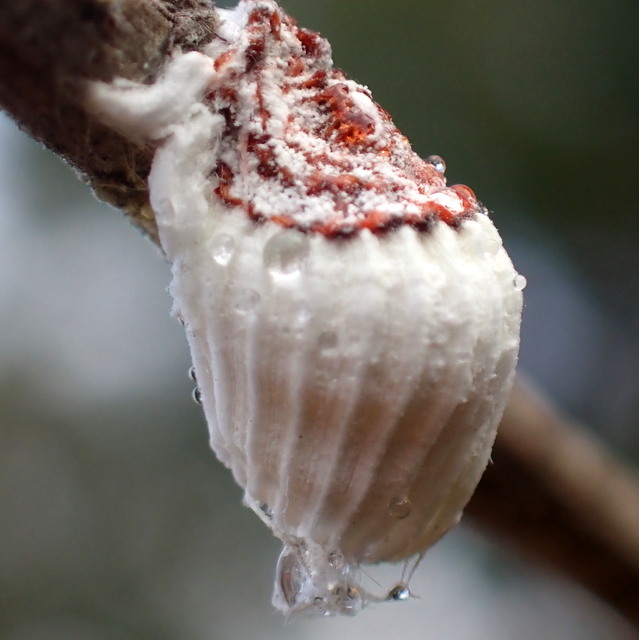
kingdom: Animalia
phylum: Arthropoda
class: Insecta
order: Hemiptera
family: Margarodidae
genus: Icerya
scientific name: Icerya purchasi
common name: Cottony cushion scale
